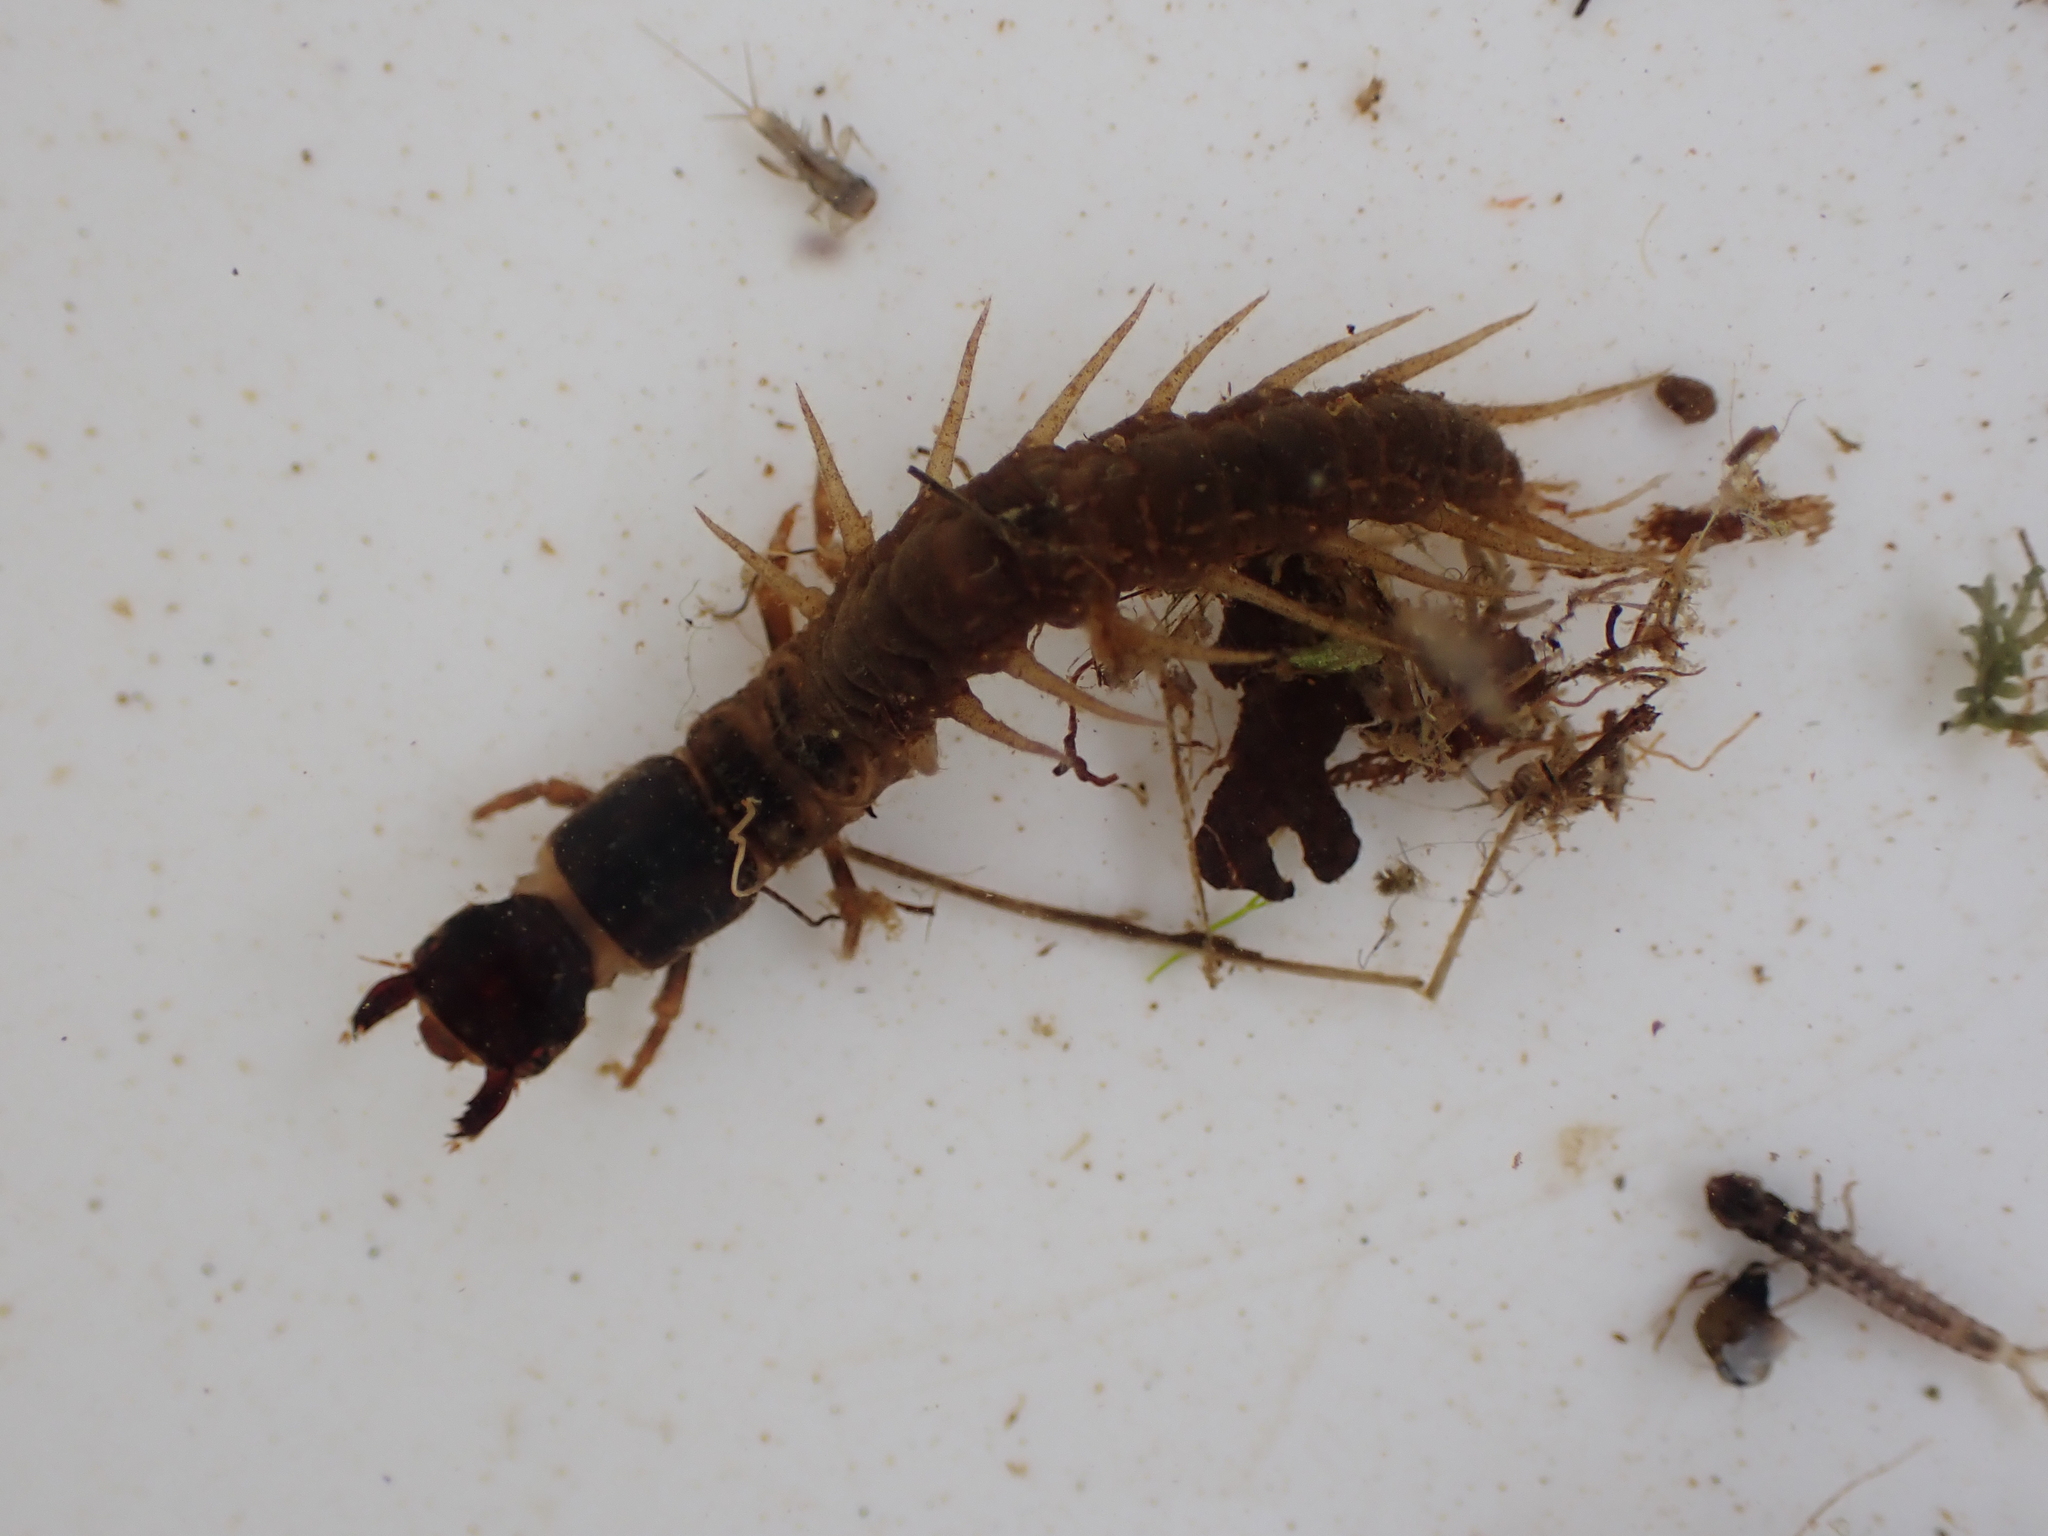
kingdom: Animalia
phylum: Arthropoda
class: Insecta
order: Megaloptera
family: Corydalidae
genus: Archichauliodes
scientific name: Archichauliodes diversus
